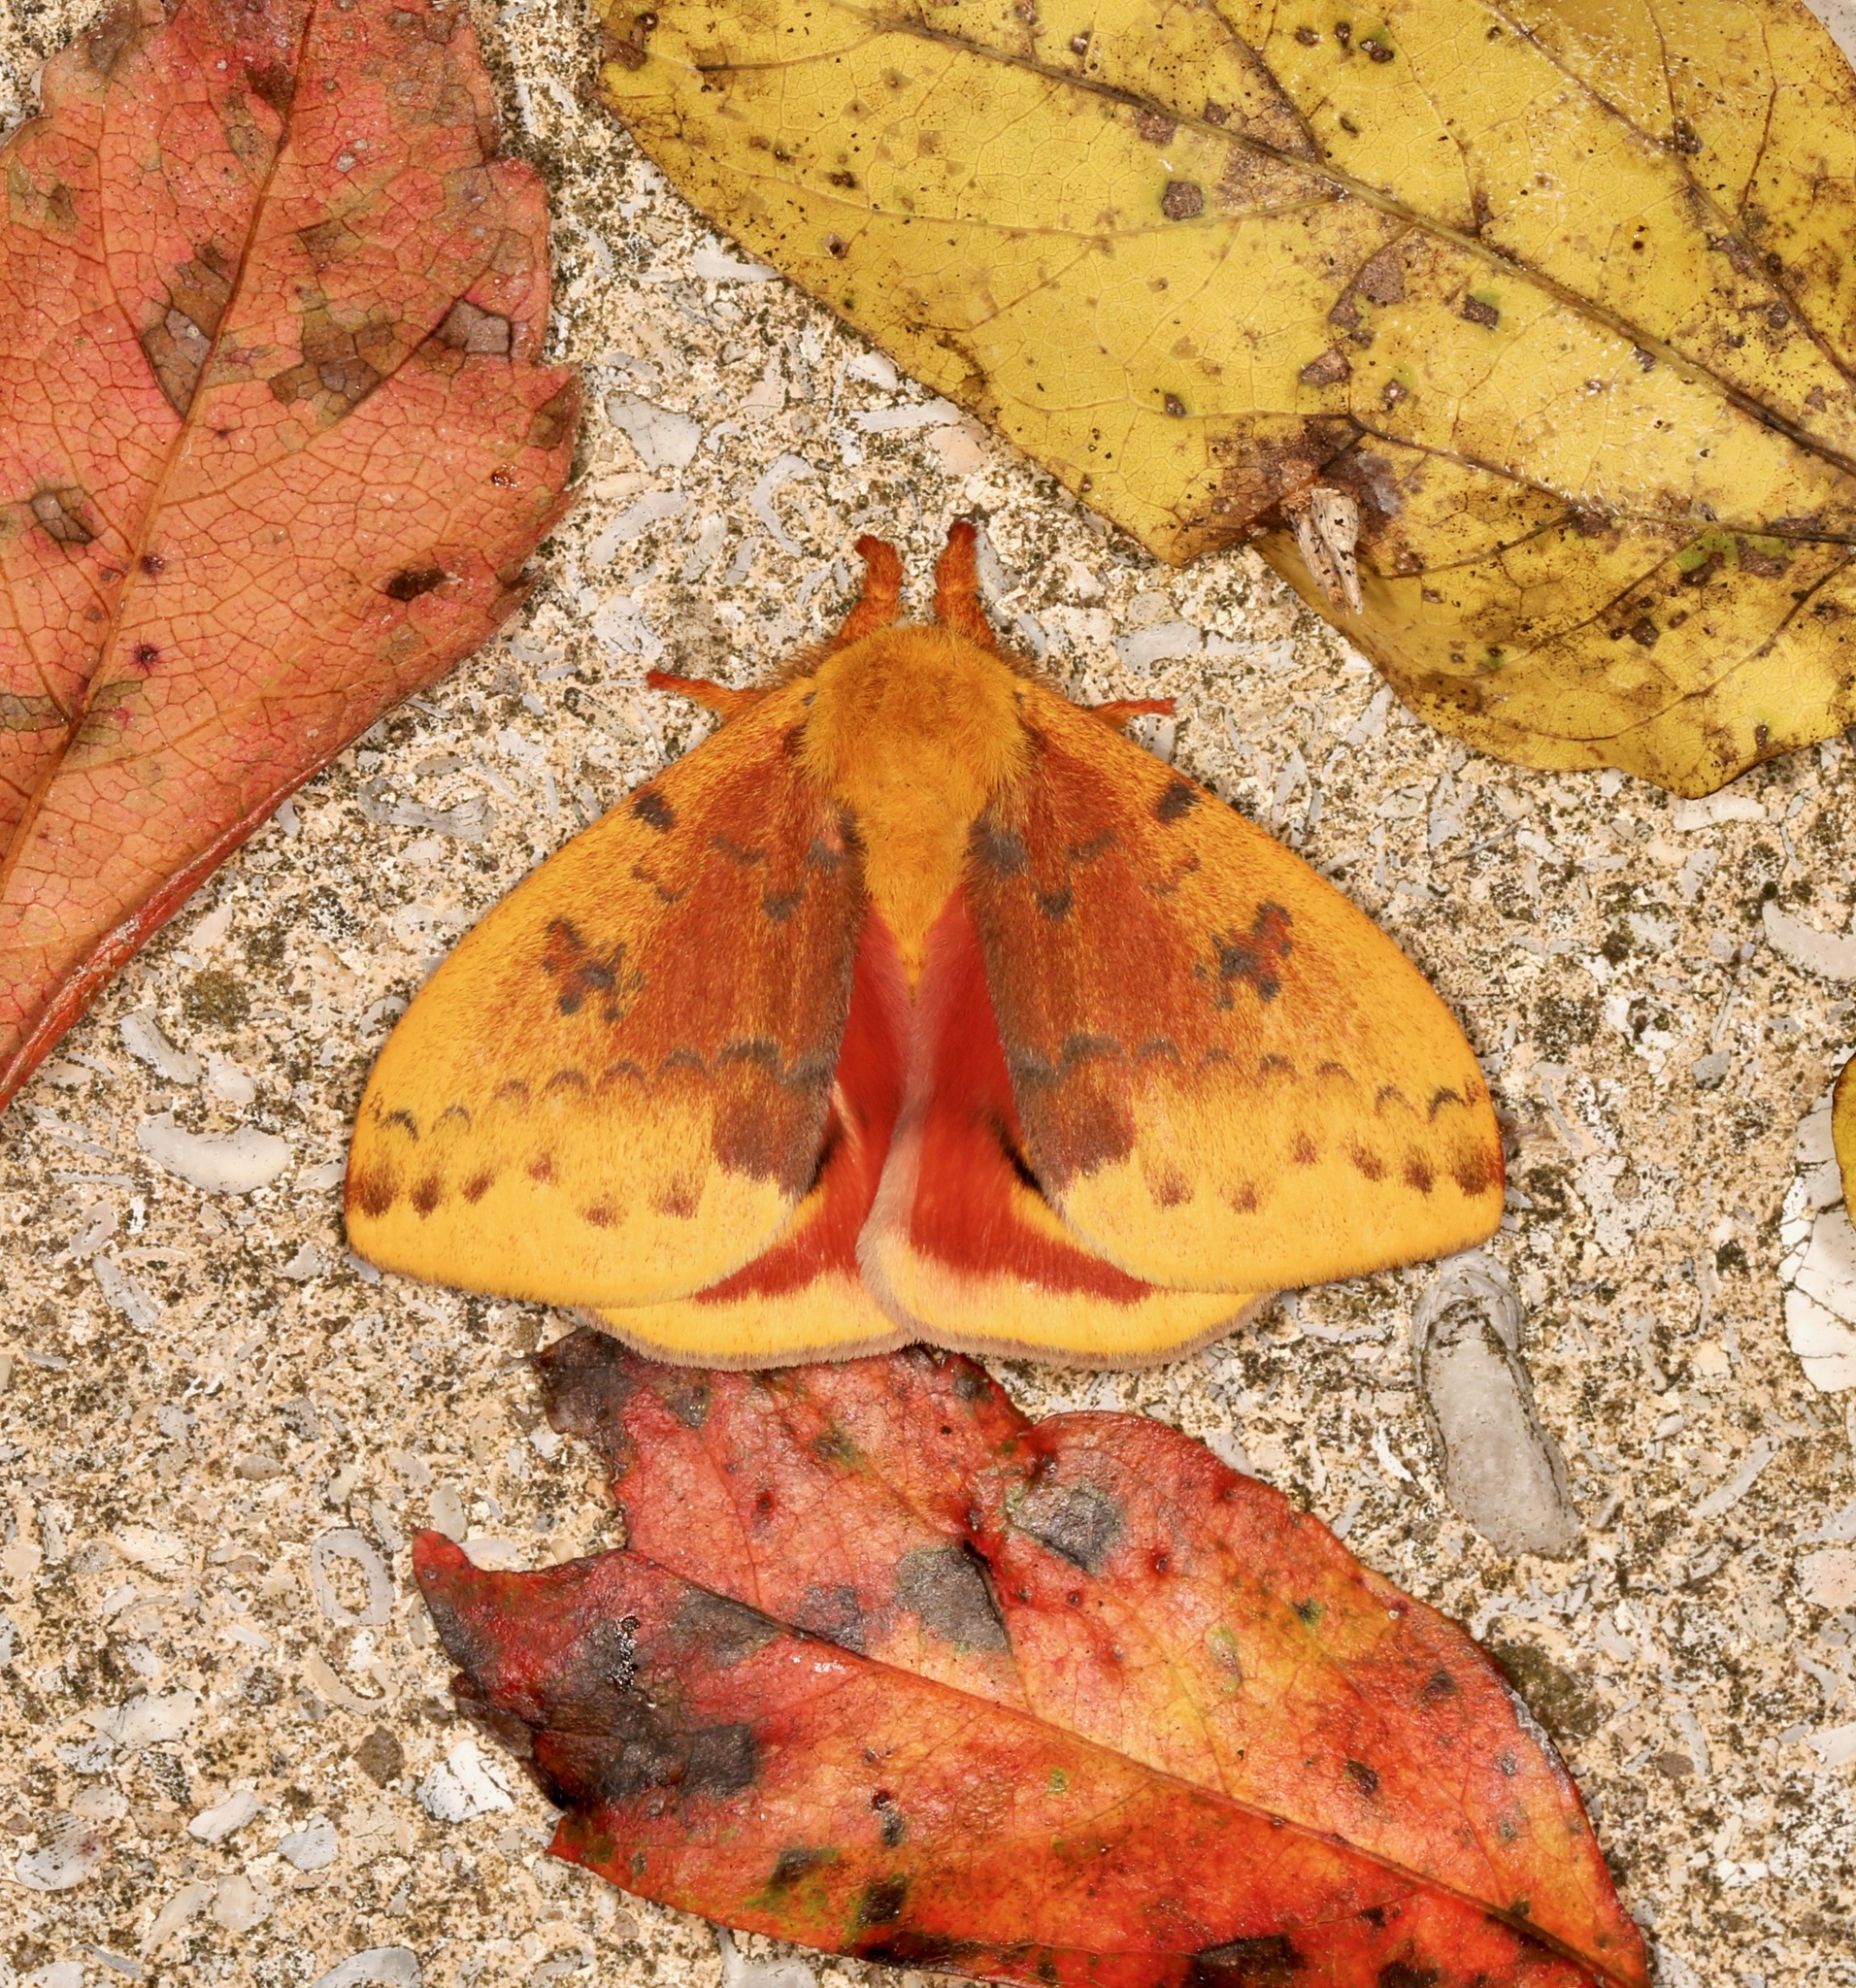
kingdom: Animalia
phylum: Arthropoda
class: Insecta
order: Lepidoptera
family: Saturniidae
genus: Automeris
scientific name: Automeris io
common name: Io moth
